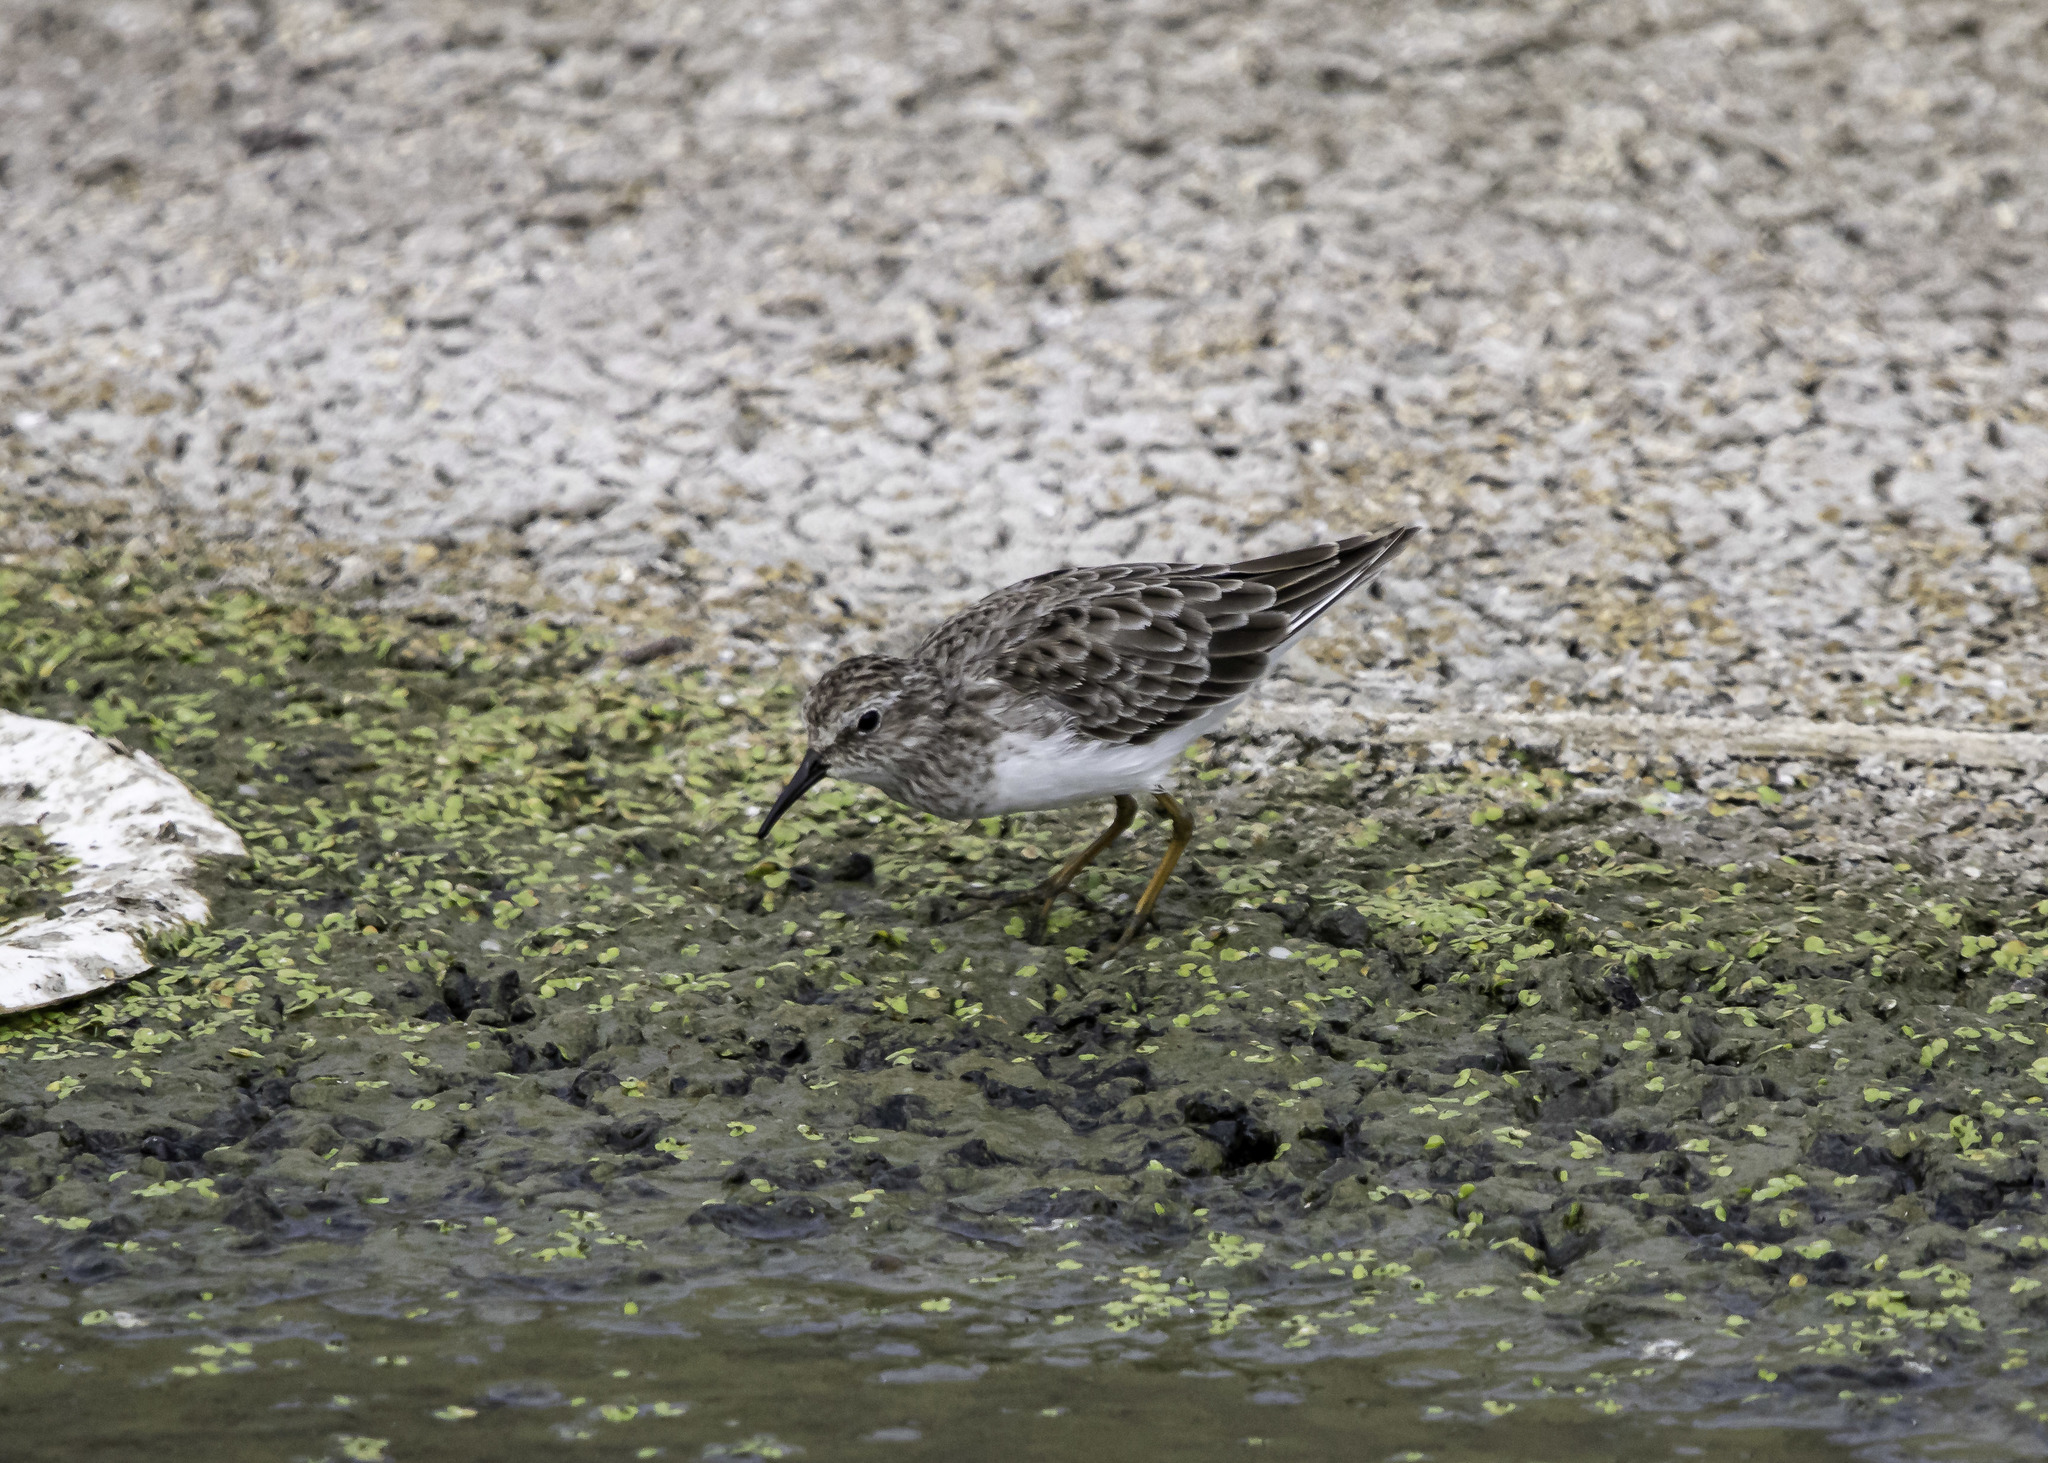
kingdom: Animalia
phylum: Chordata
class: Aves
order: Charadriiformes
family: Scolopacidae
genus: Calidris
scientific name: Calidris minutilla
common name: Least sandpiper
